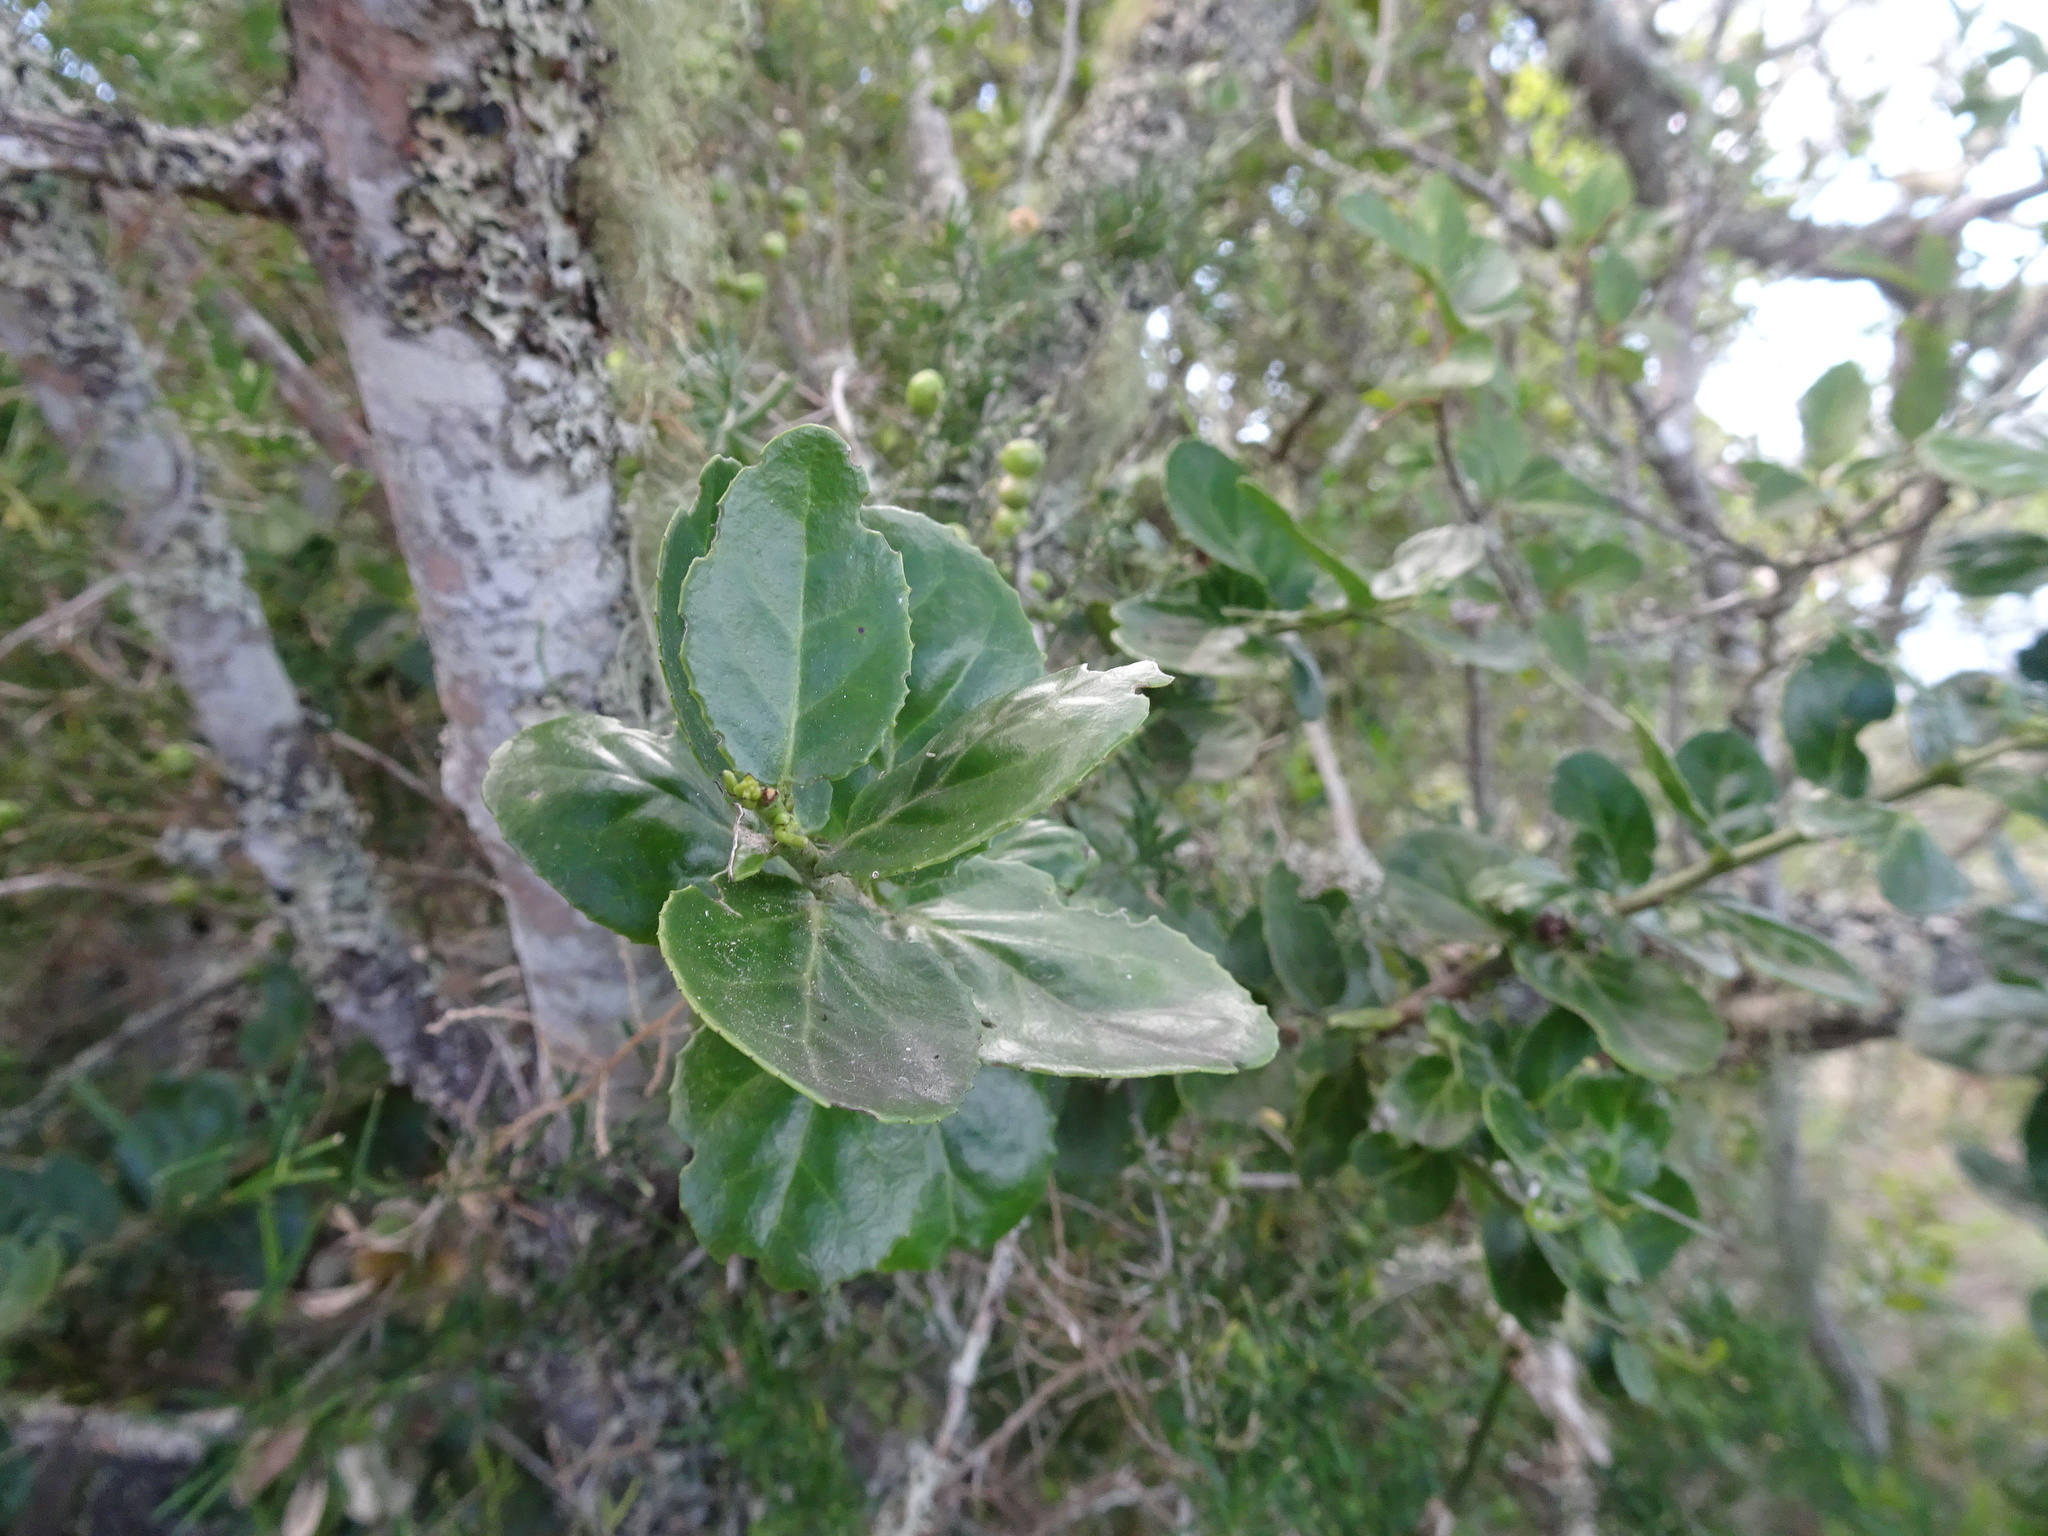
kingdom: Plantae
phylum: Tracheophyta
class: Magnoliopsida
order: Celastrales
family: Celastraceae
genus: Mystroxylon
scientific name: Mystroxylon aethiopicum
